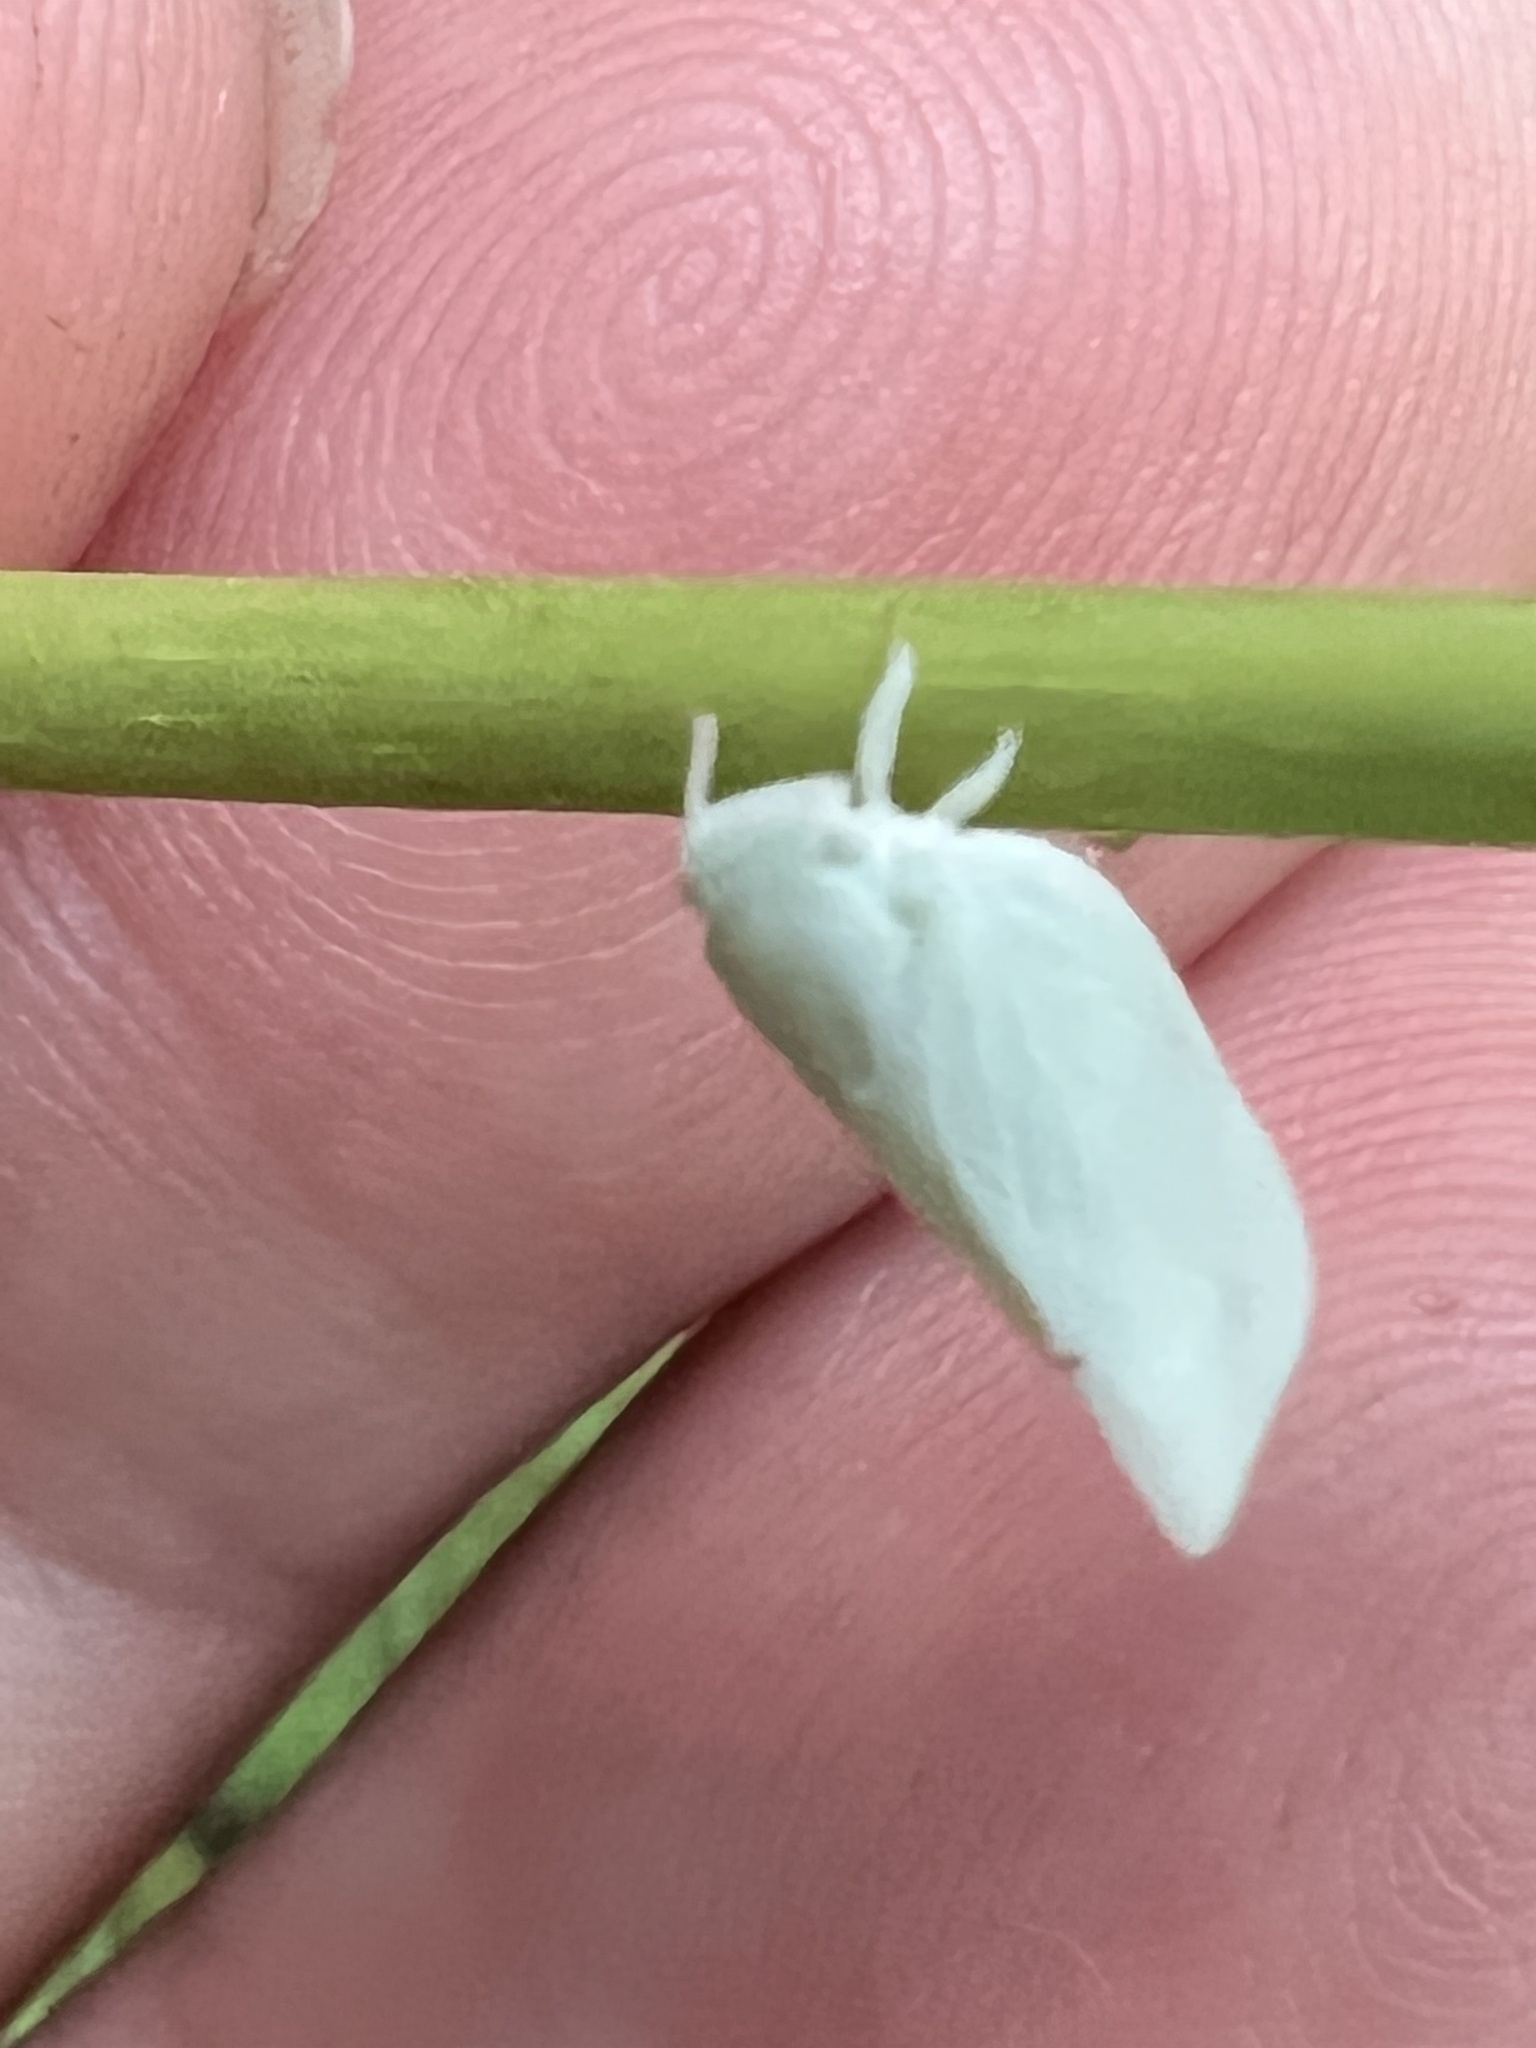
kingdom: Animalia
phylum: Arthropoda
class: Insecta
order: Hemiptera
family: Flatidae
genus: Flatormenis
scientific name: Flatormenis proxima
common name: Northern flatid planthopper
